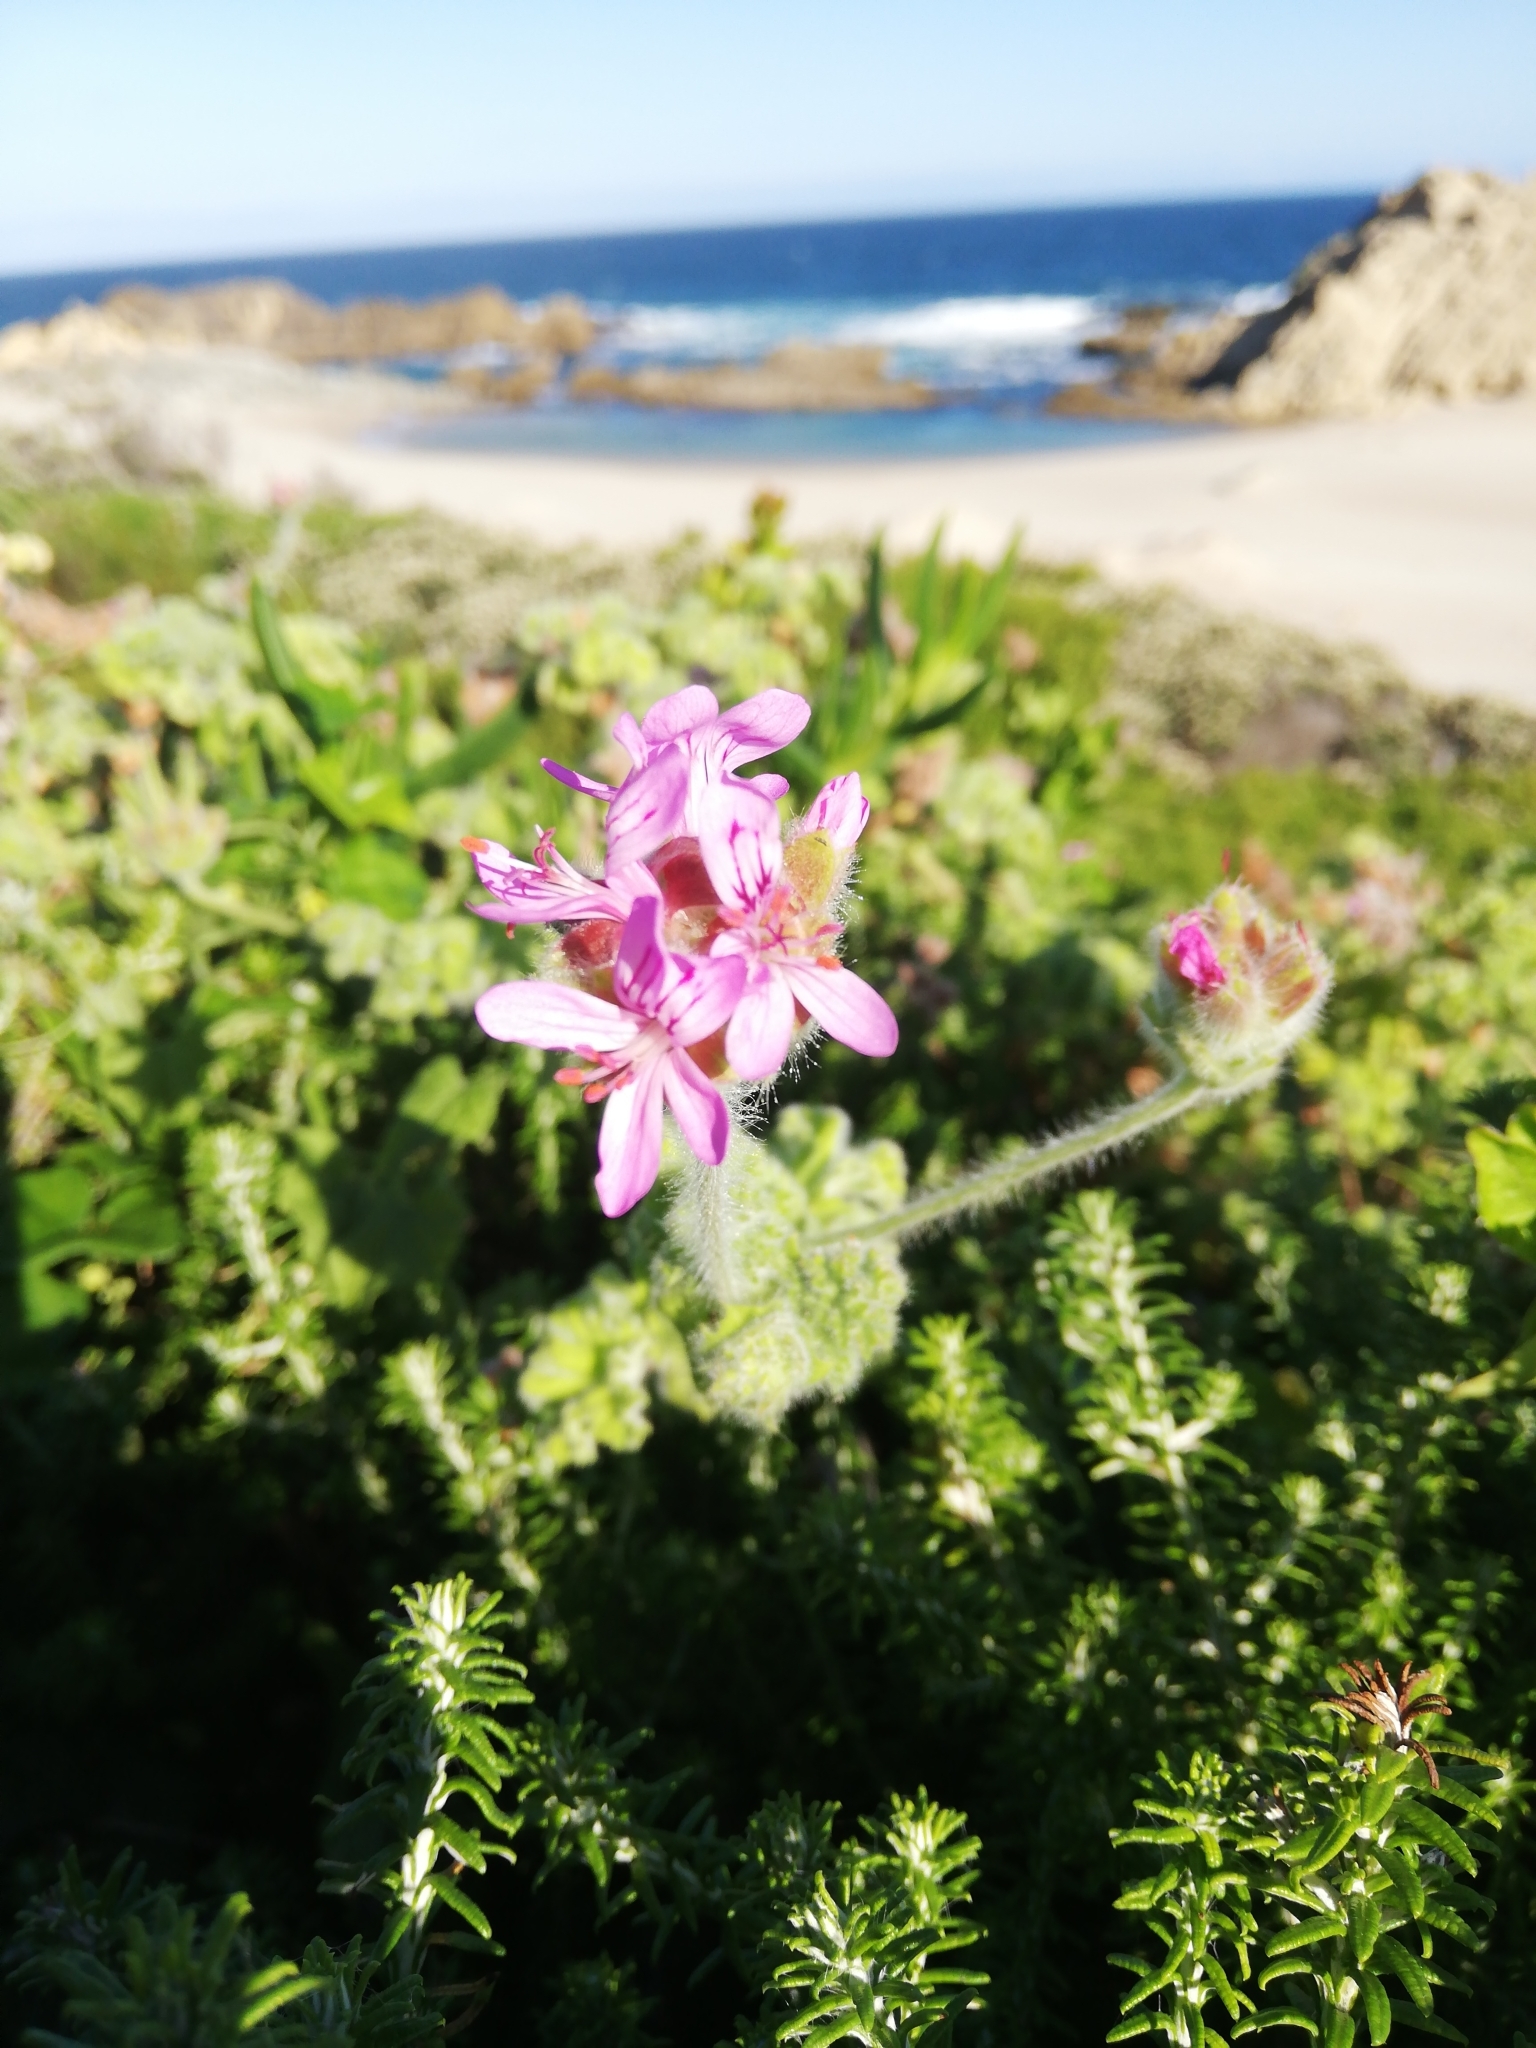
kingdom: Plantae
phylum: Tracheophyta
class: Magnoliopsida
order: Geraniales
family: Geraniaceae
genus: Pelargonium
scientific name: Pelargonium capitatum
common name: Rose scented geranium
